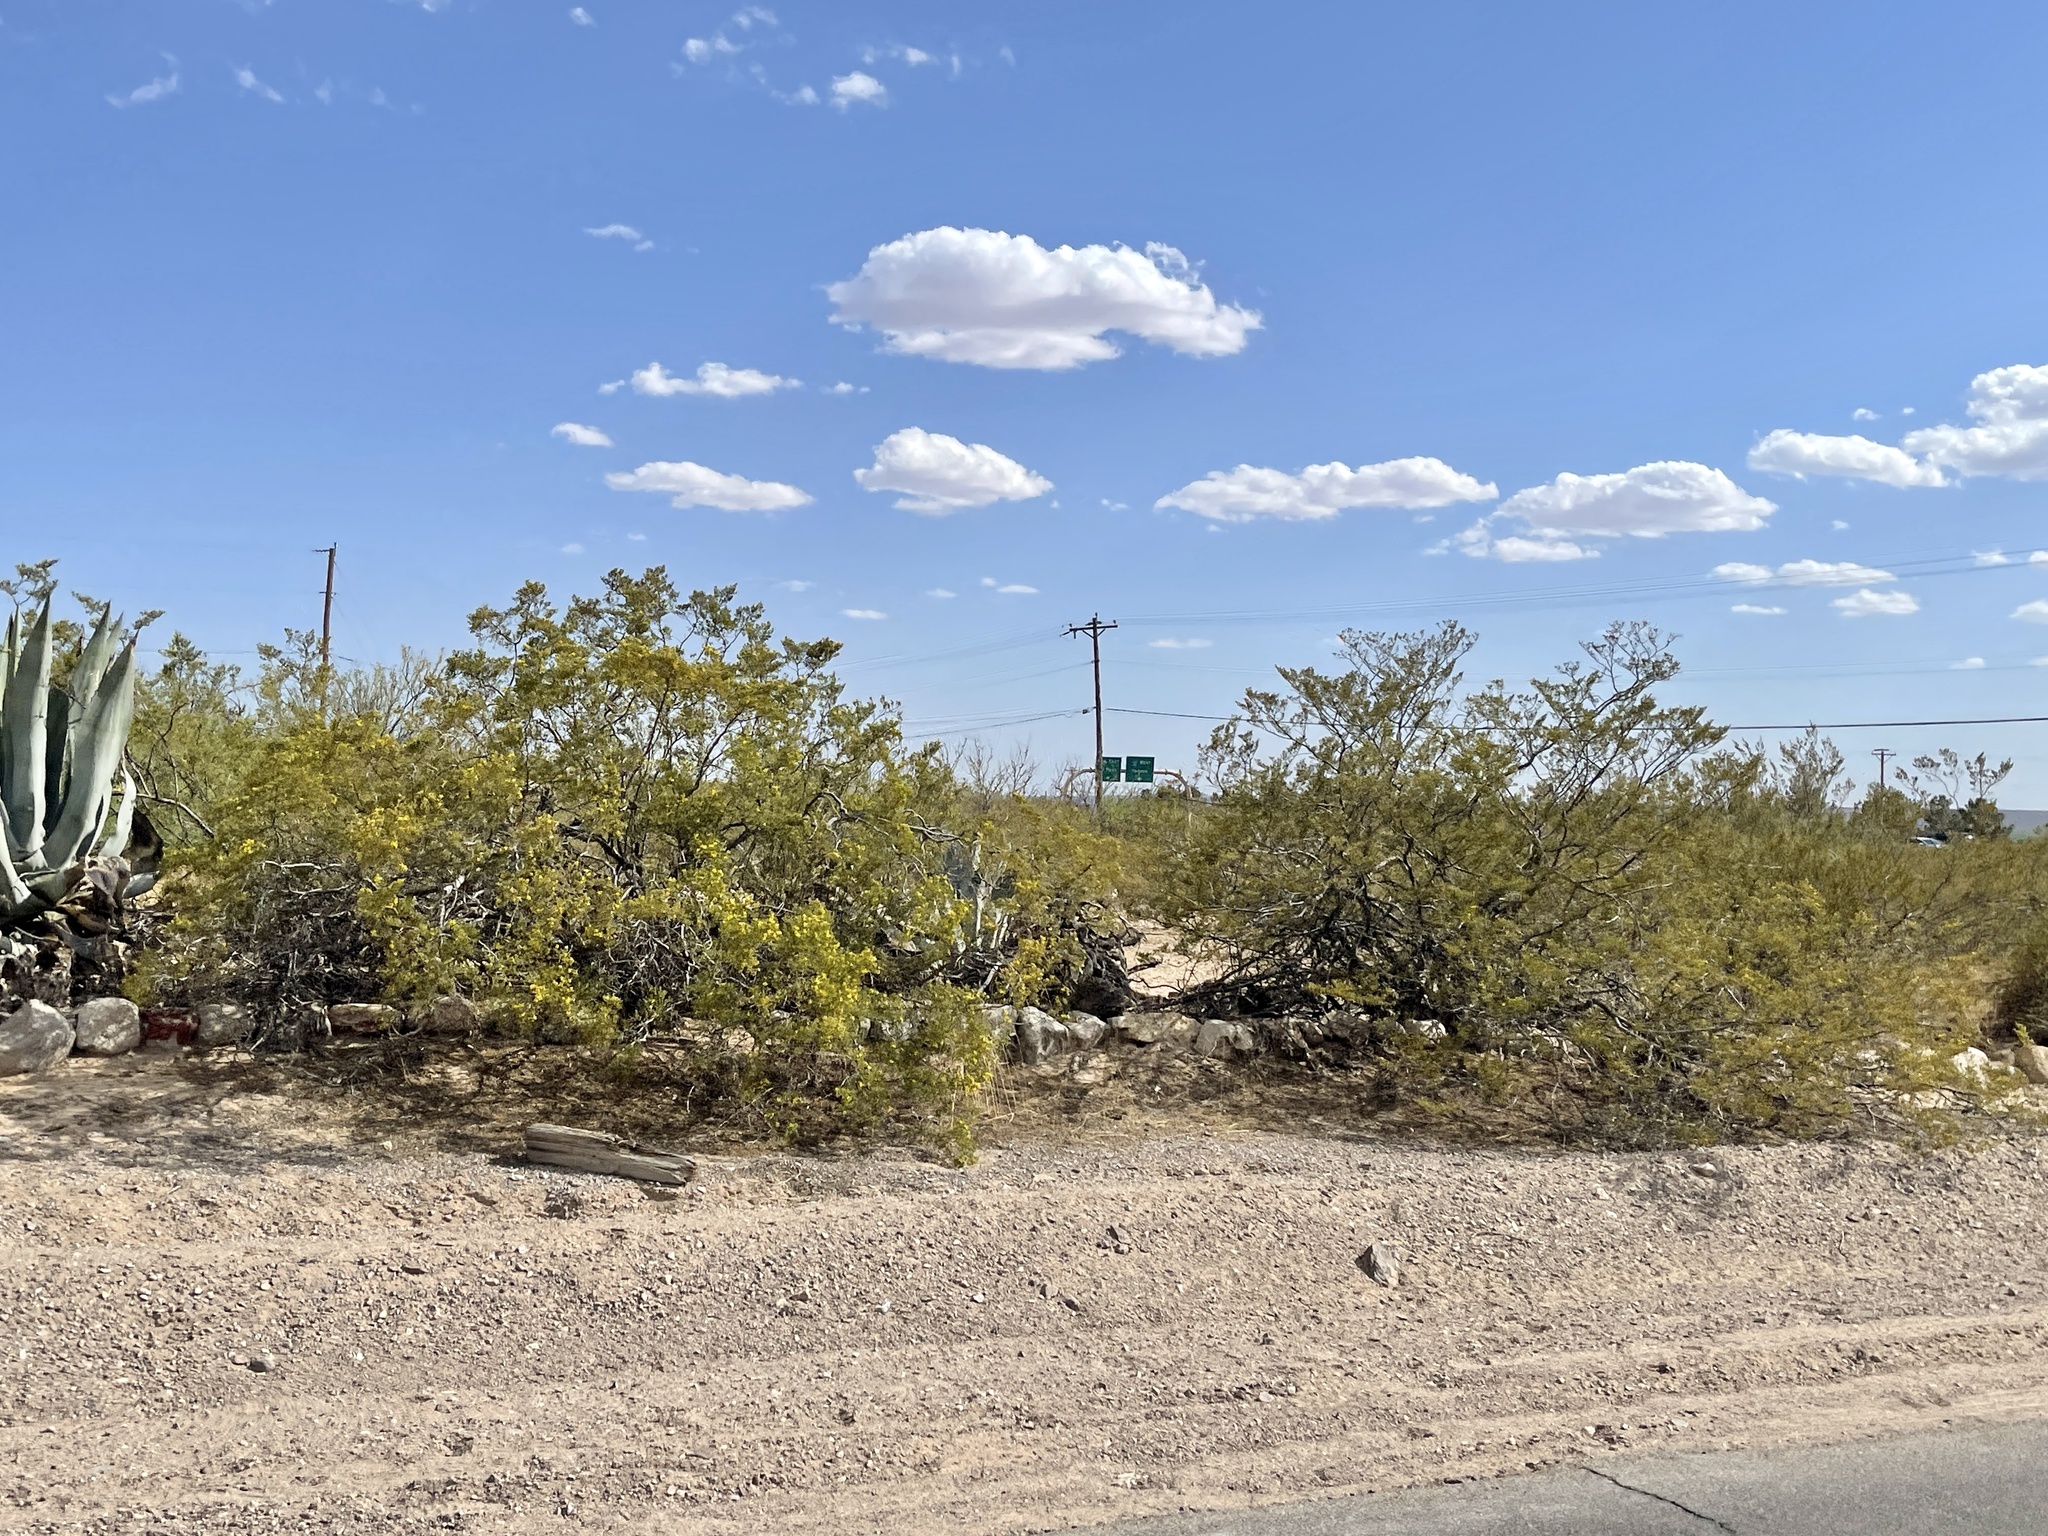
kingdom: Plantae
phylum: Tracheophyta
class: Magnoliopsida
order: Zygophyllales
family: Zygophyllaceae
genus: Larrea
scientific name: Larrea tridentata
